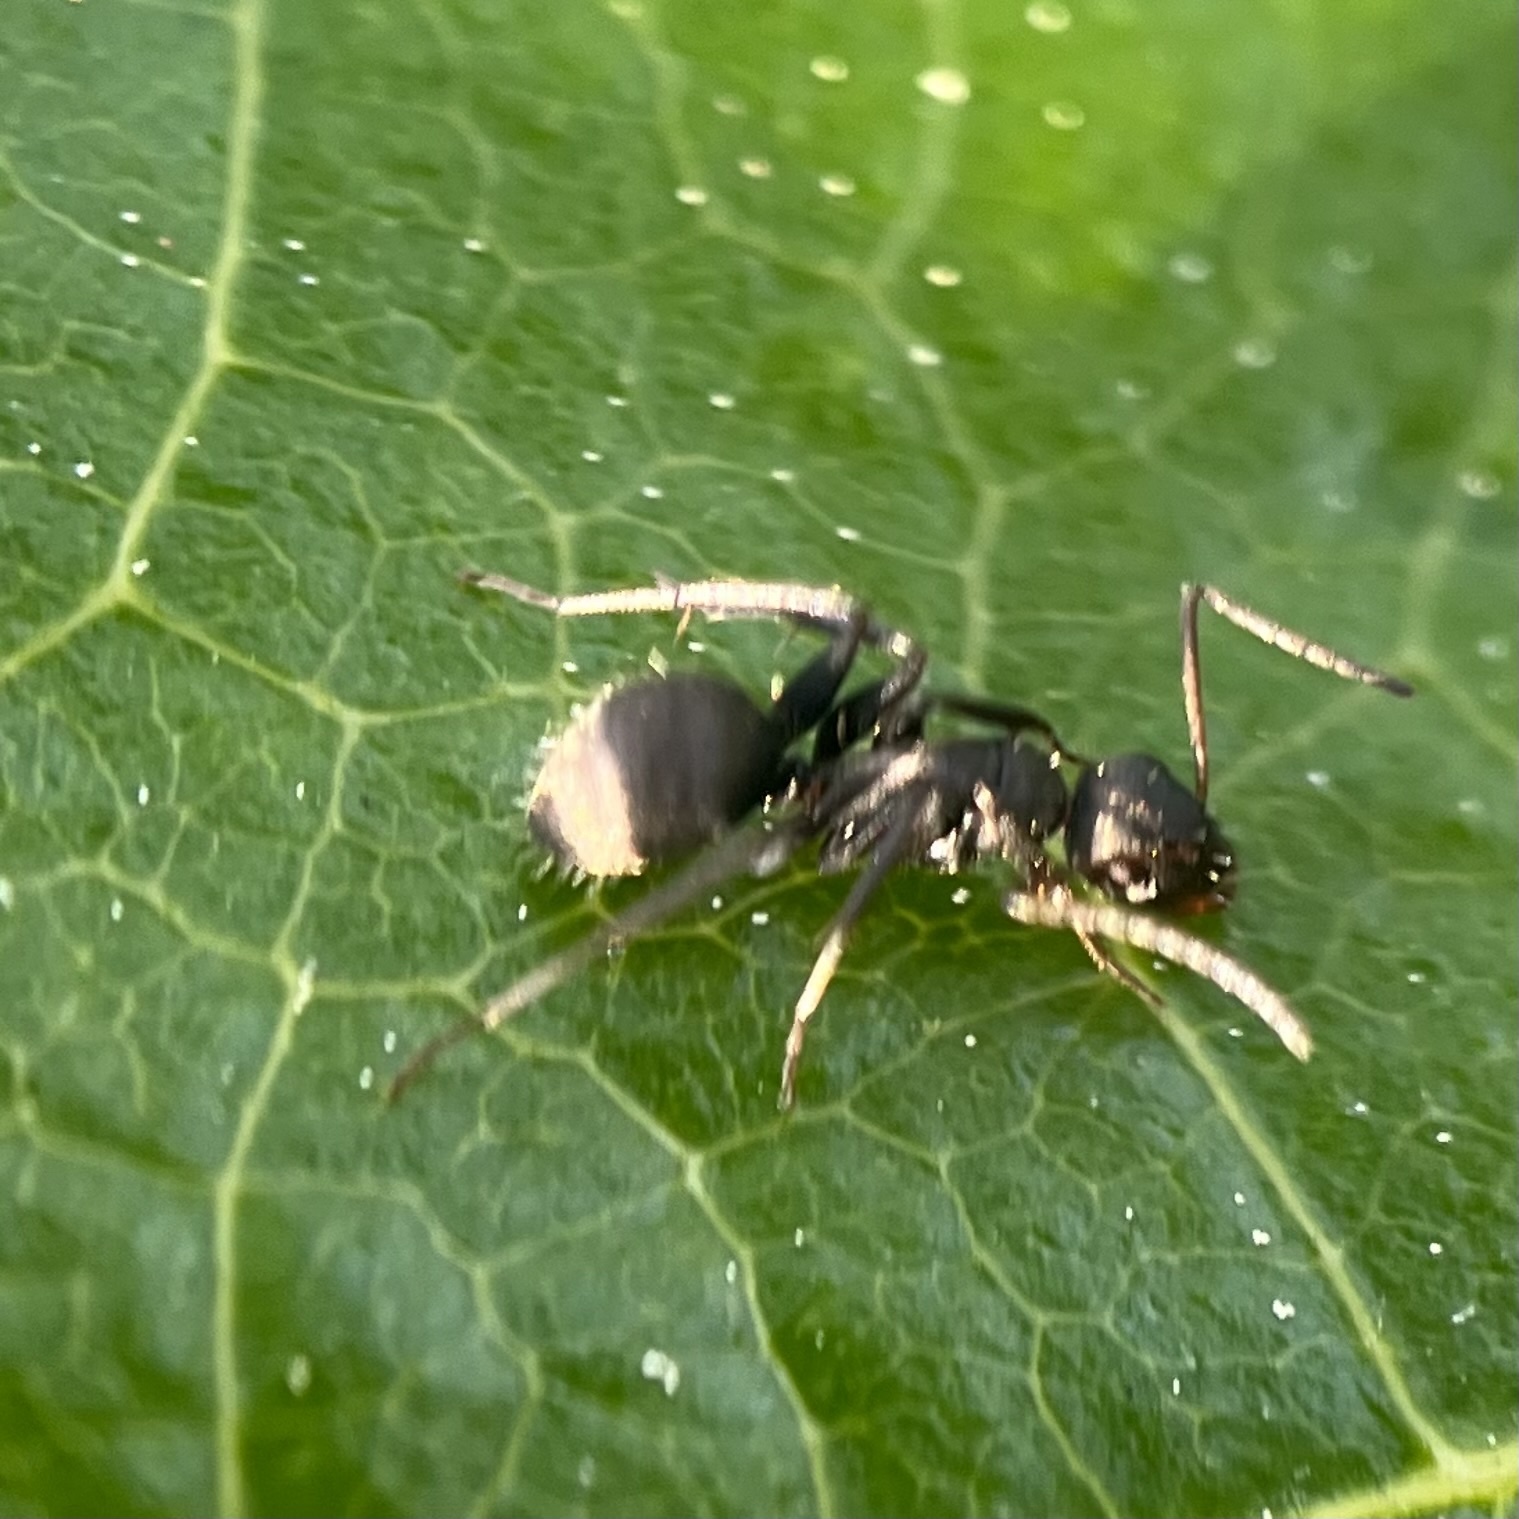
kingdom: Animalia
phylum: Arthropoda
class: Insecta
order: Hymenoptera
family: Formicidae
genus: Camponotus
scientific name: Camponotus novogranadensis
